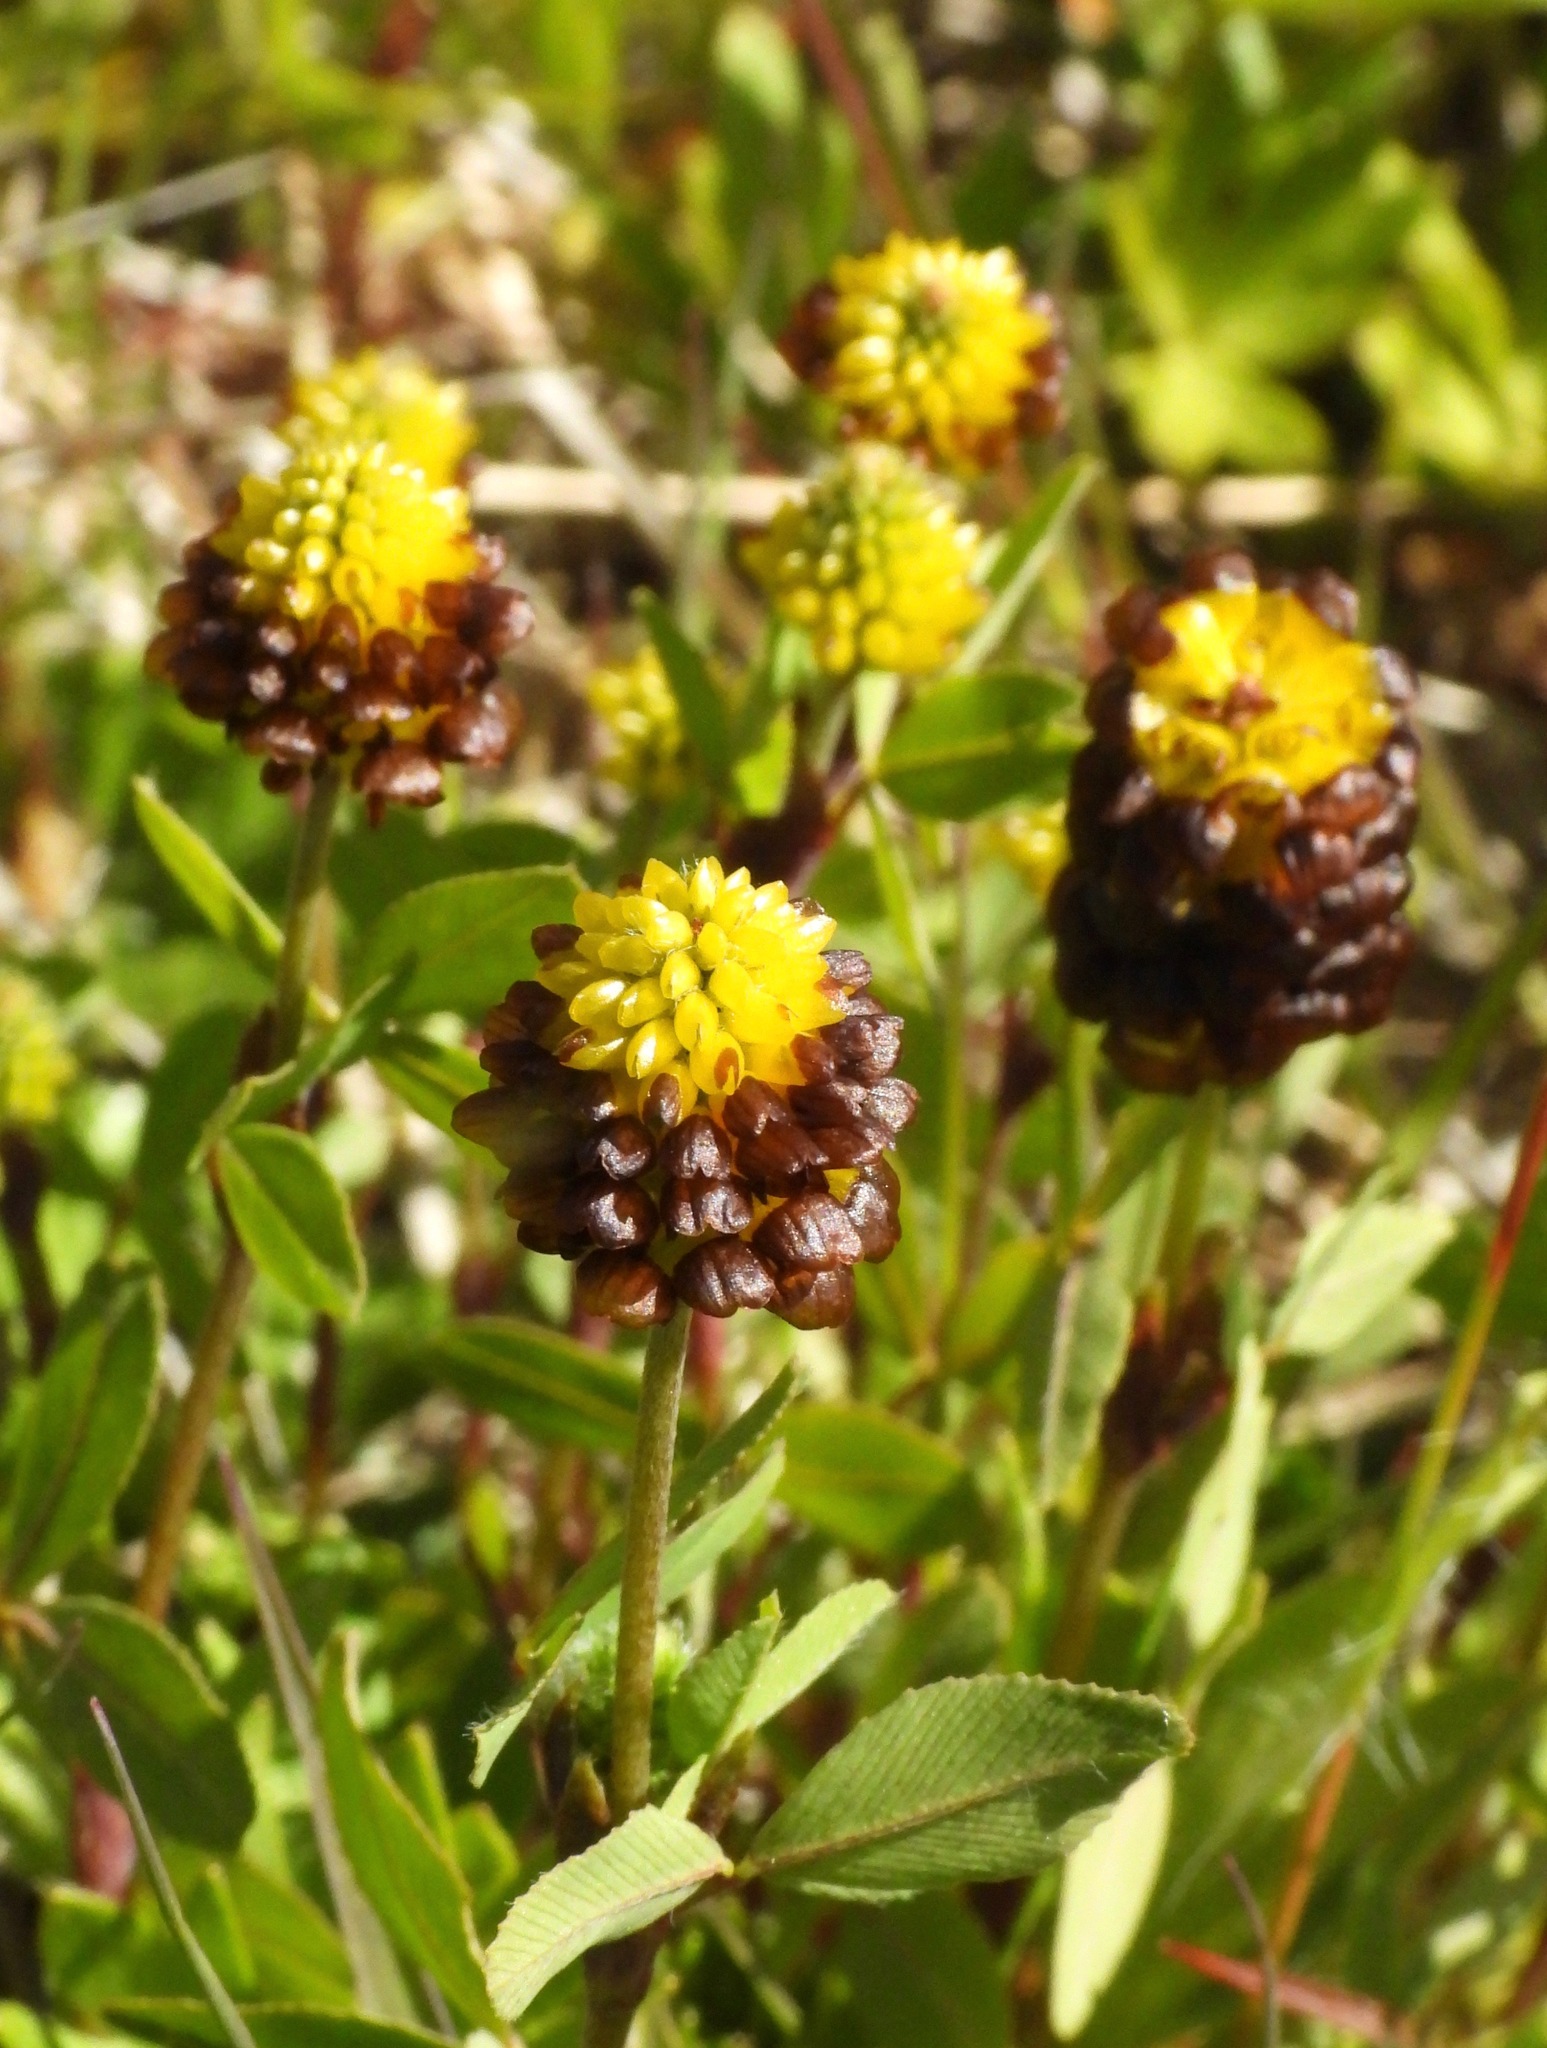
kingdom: Plantae
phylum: Tracheophyta
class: Magnoliopsida
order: Fabales
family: Fabaceae
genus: Trifolium
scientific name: Trifolium spadiceum
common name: Brown moor clover
